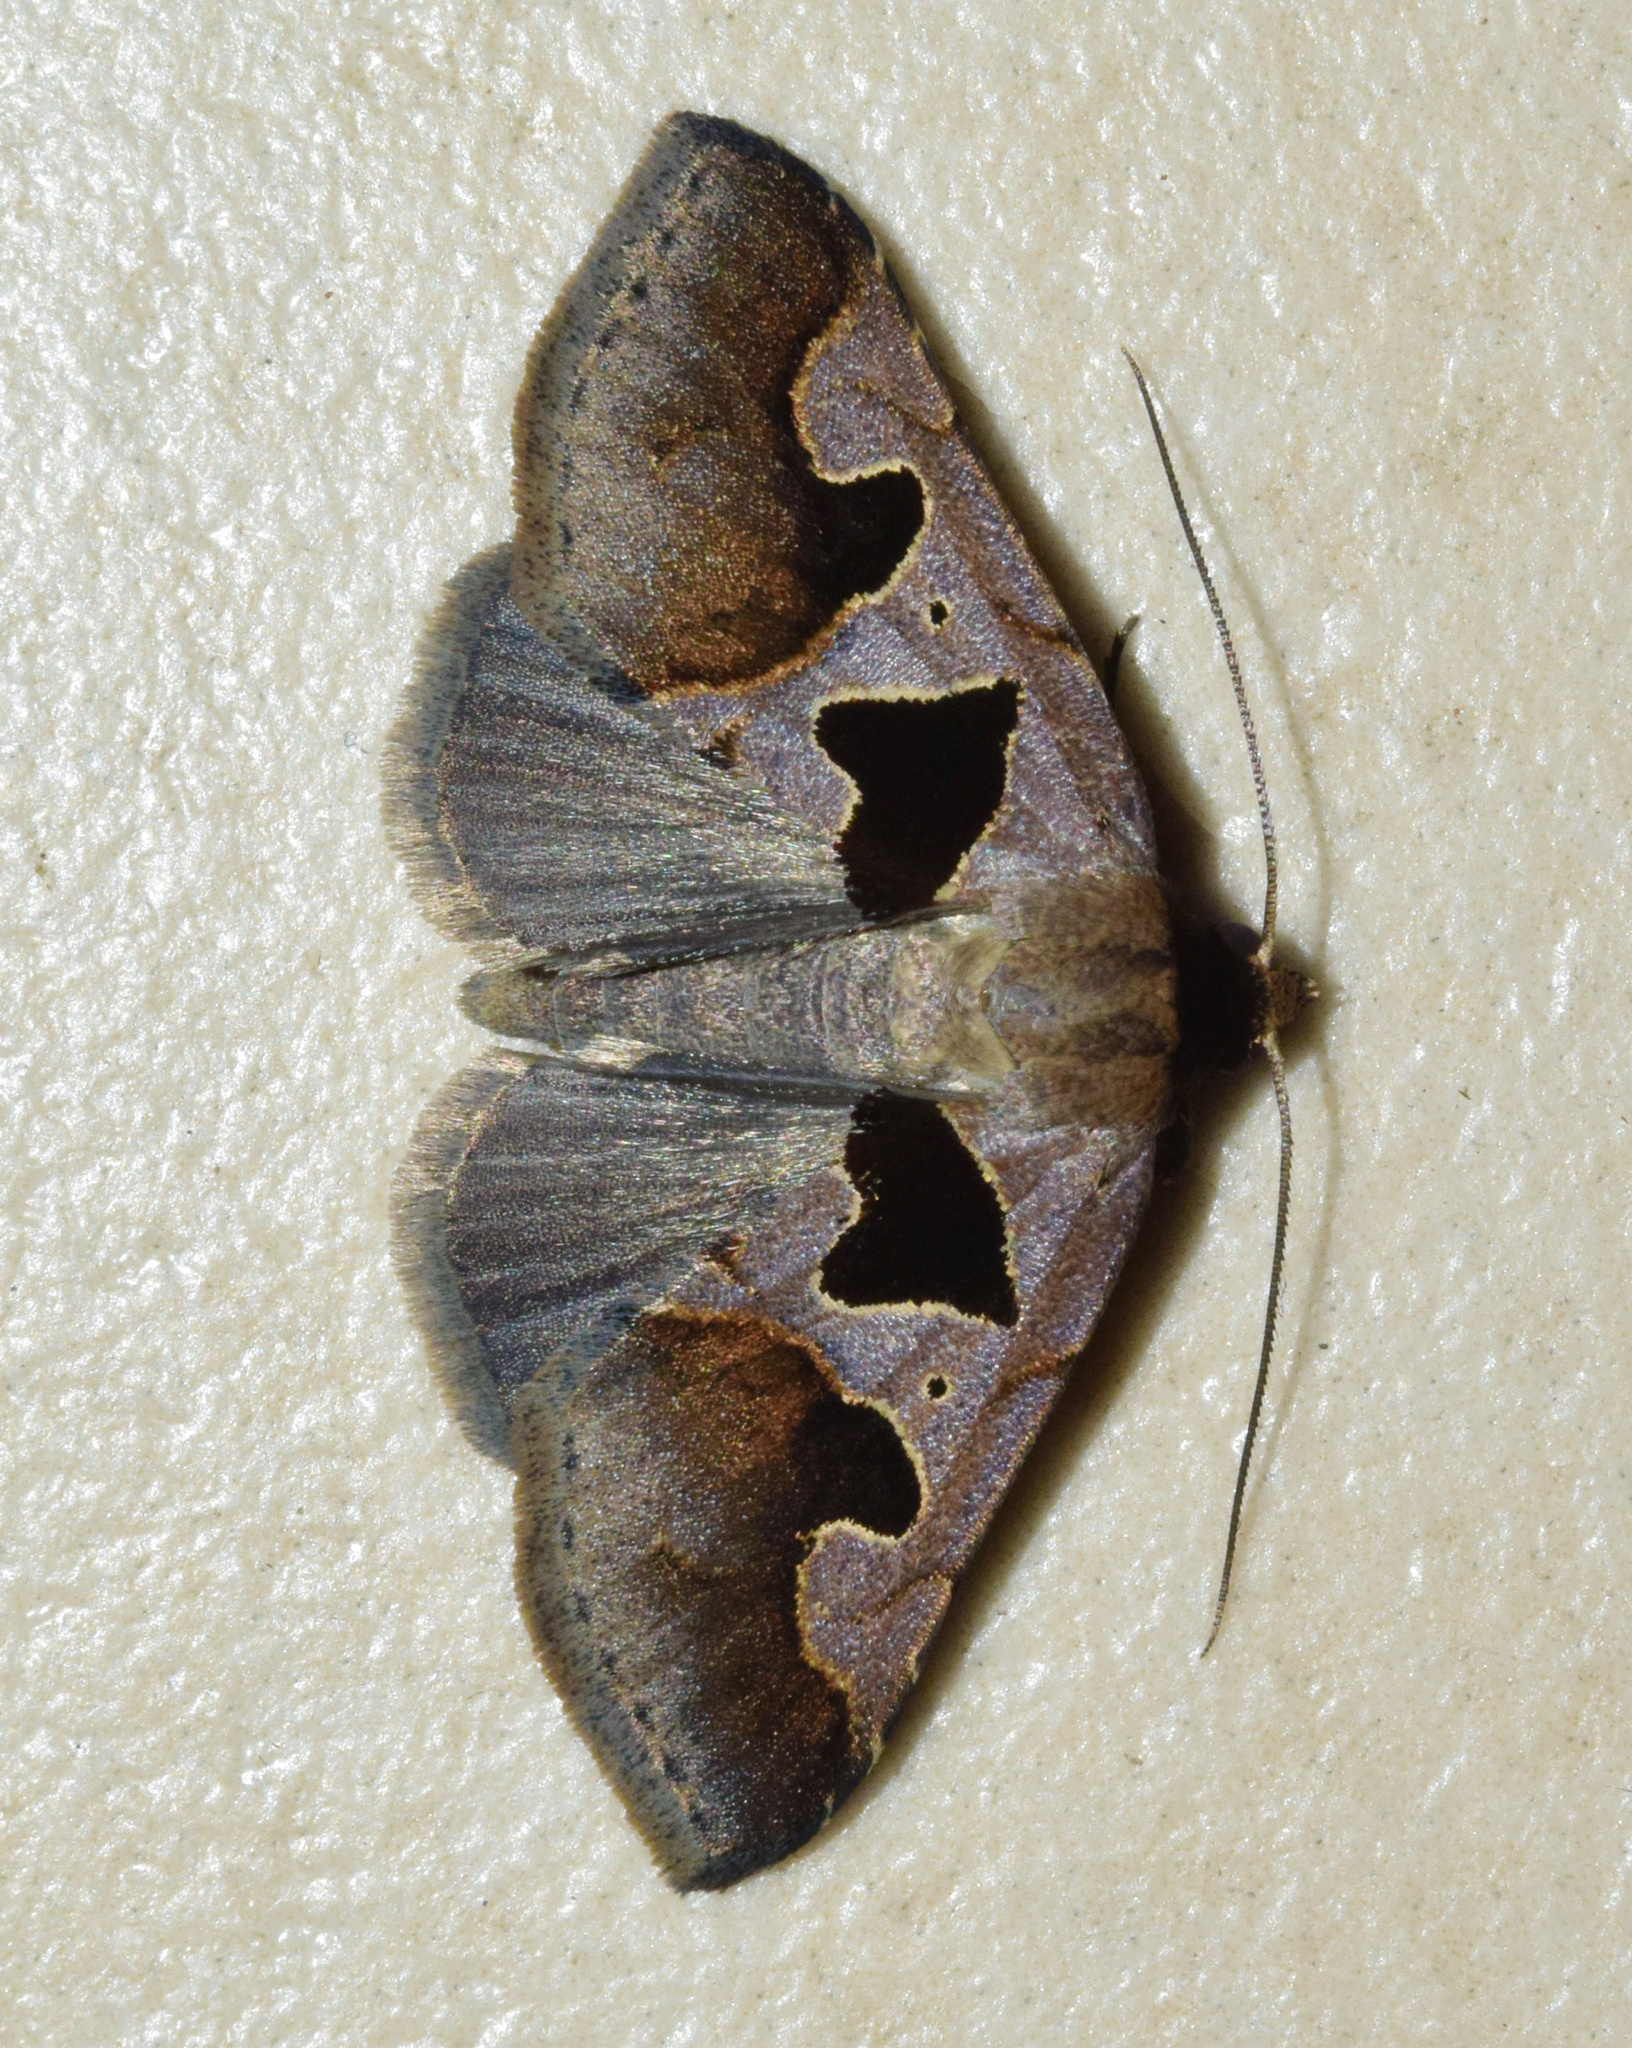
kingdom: Animalia
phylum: Arthropoda
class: Insecta
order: Lepidoptera
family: Erebidae
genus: Anoba
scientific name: Anoba disjuncta
